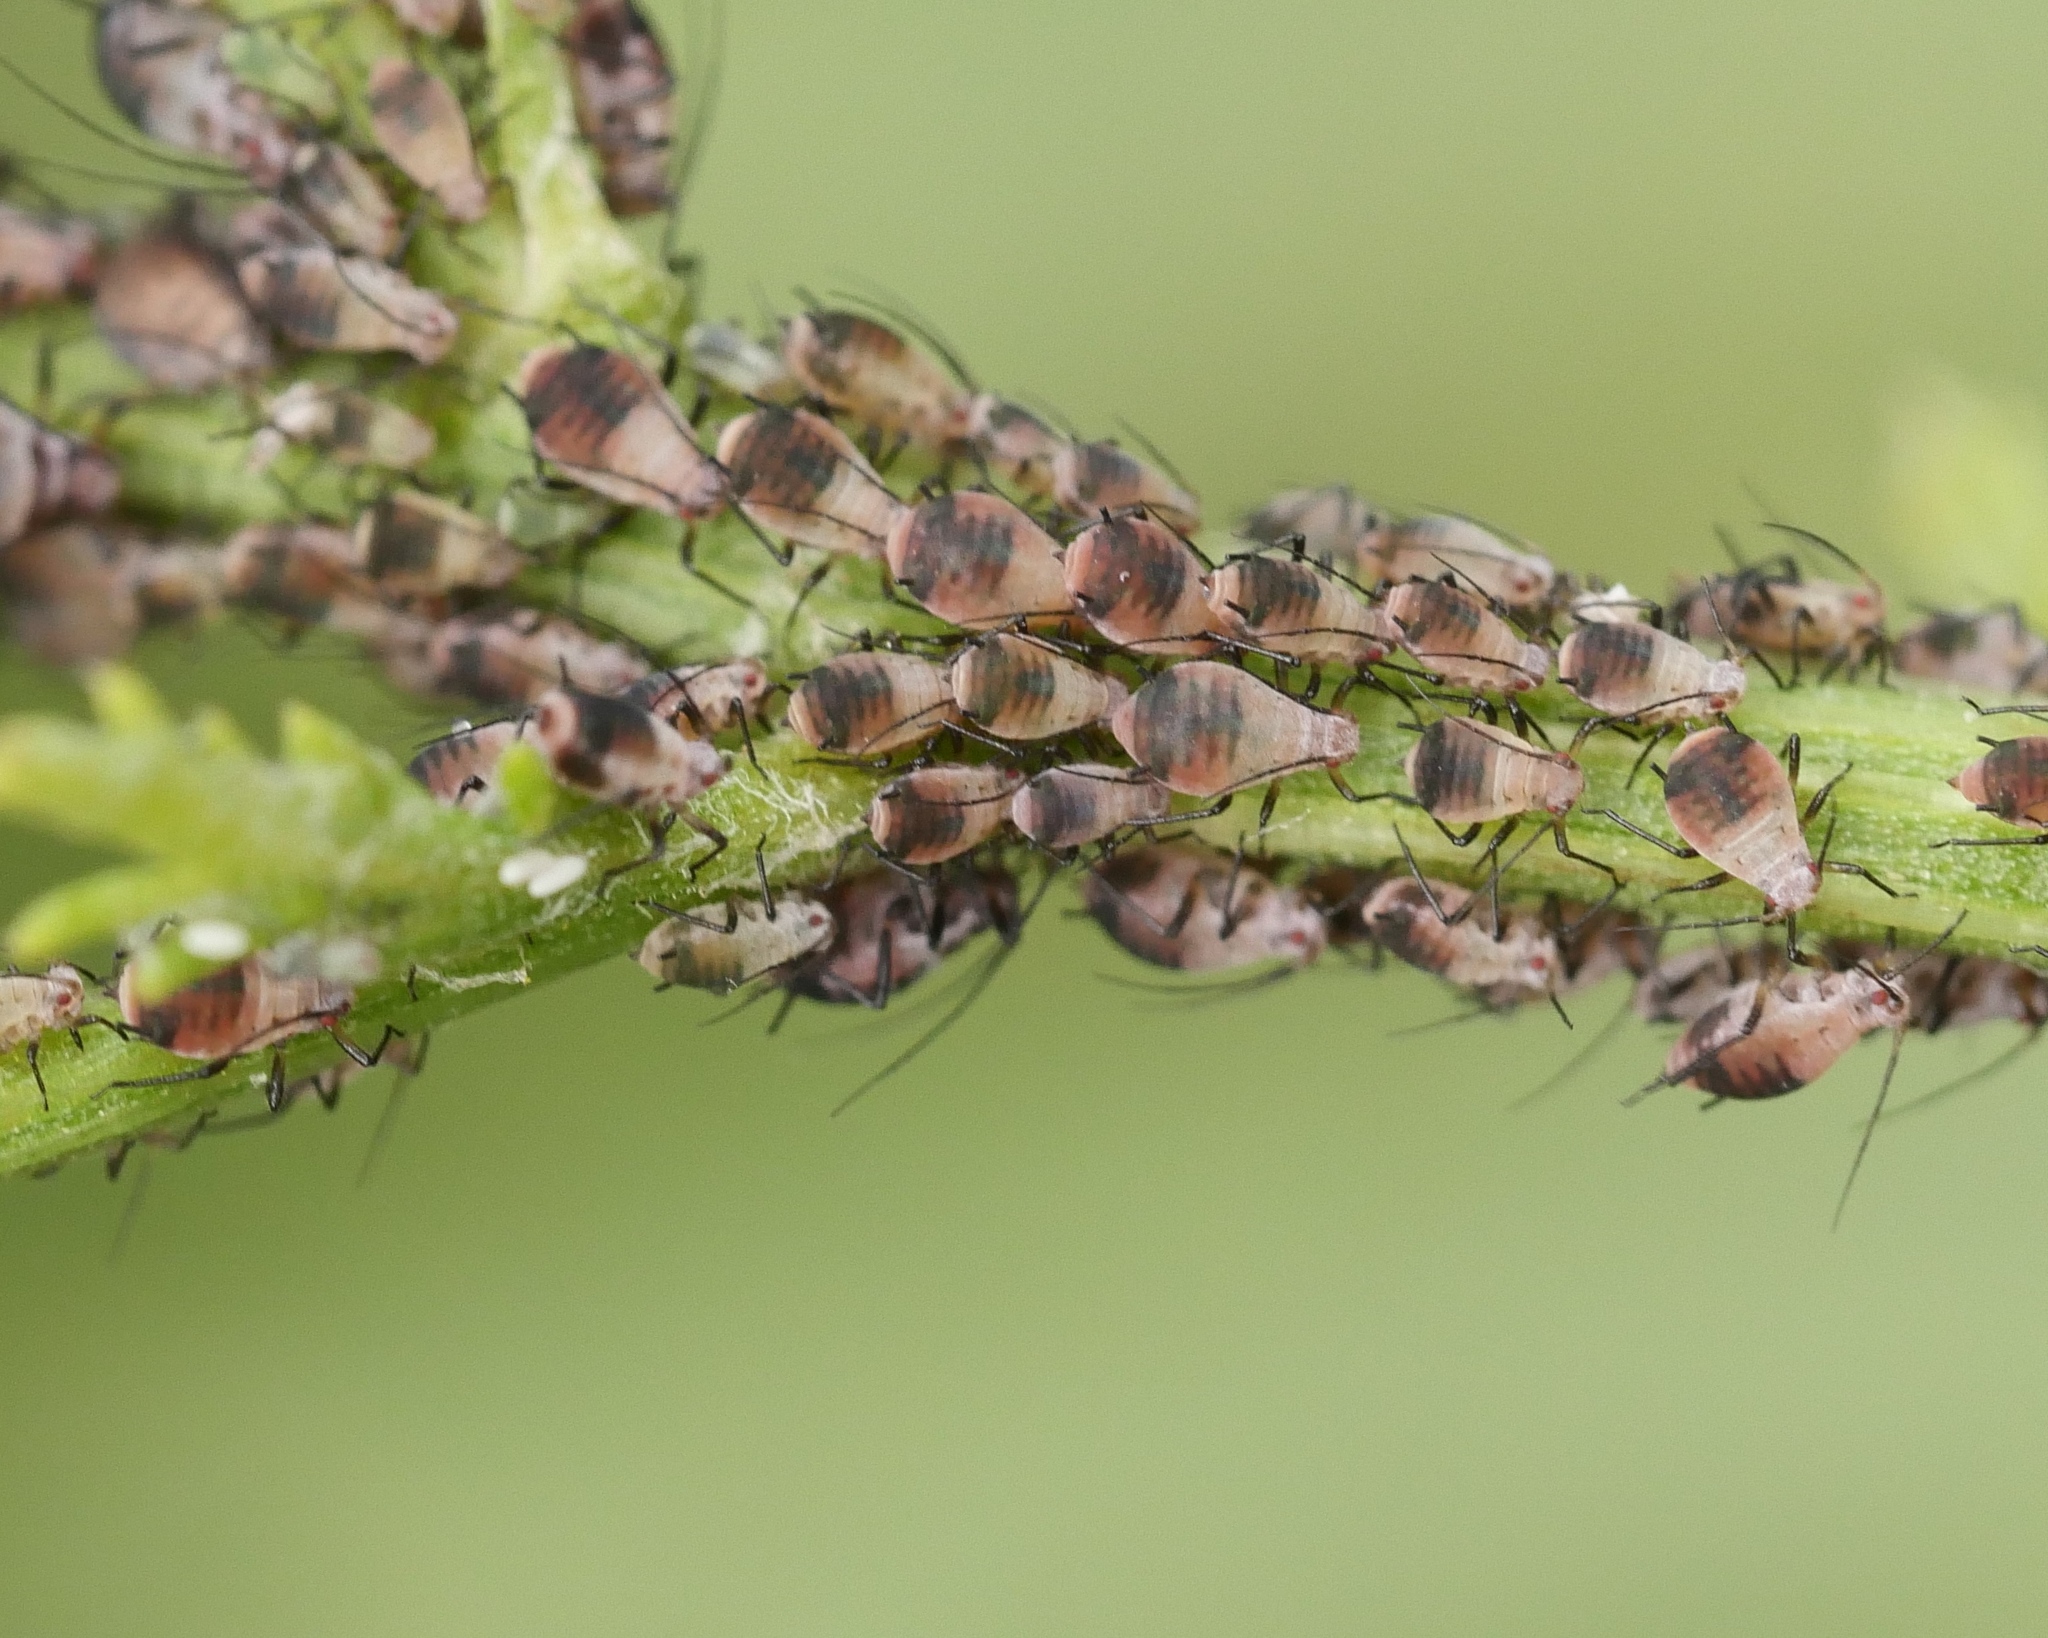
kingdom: Animalia
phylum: Arthropoda
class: Insecta
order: Hemiptera
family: Aphididae
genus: Metopeurum
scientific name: Metopeurum fuscoviride
